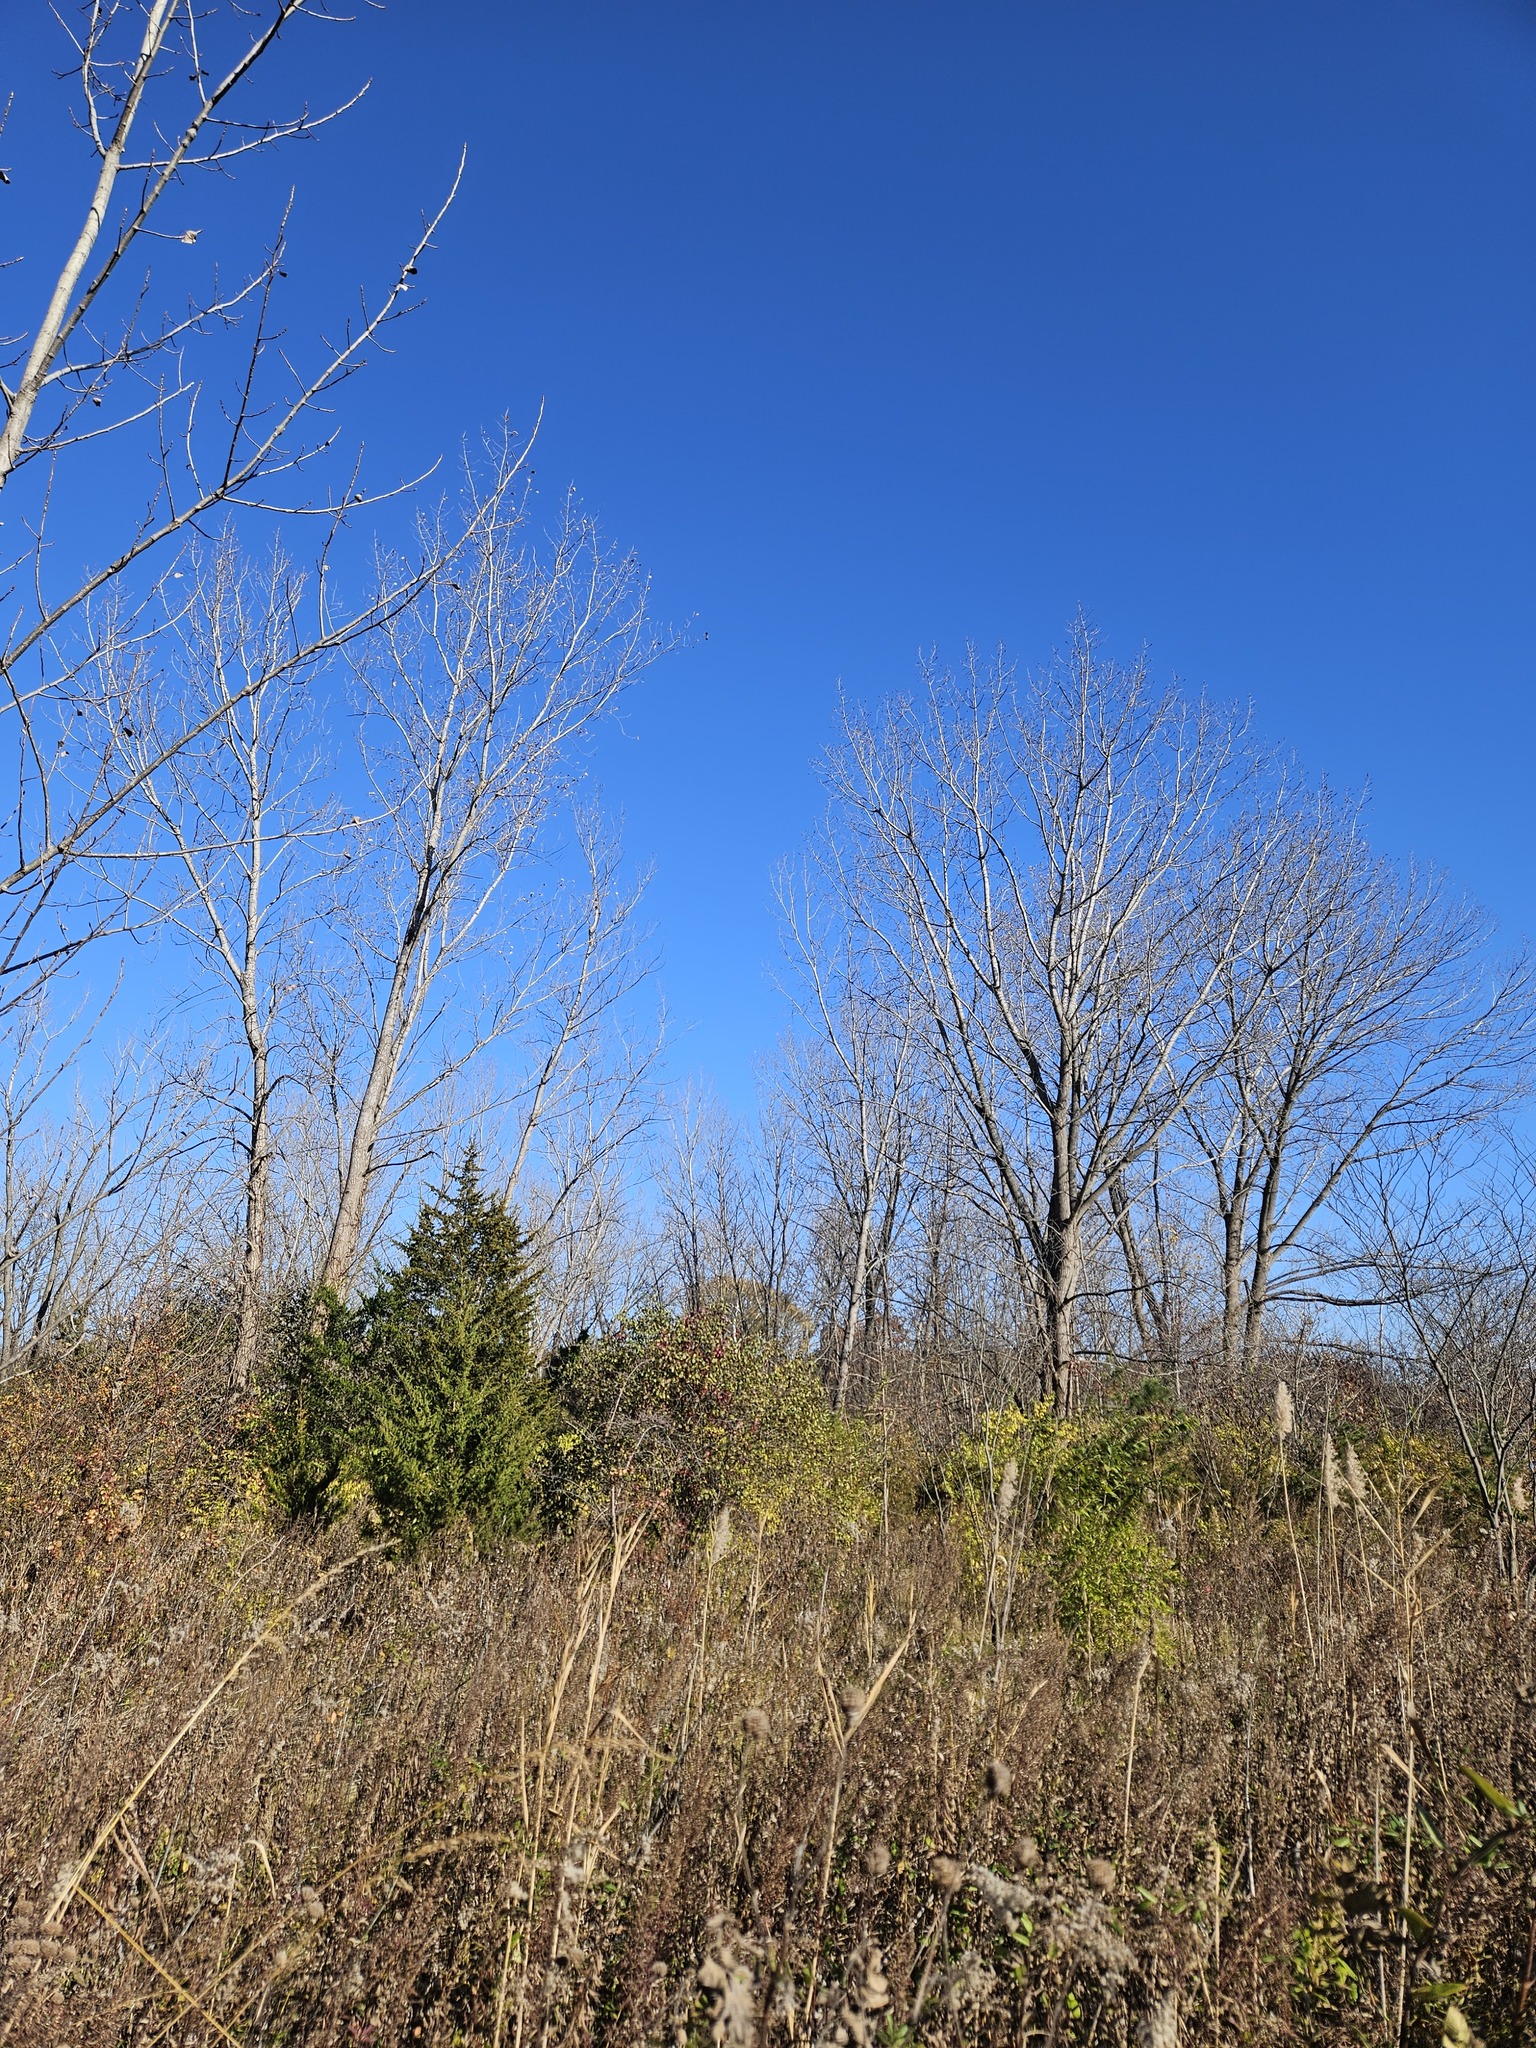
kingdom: Plantae
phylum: Tracheophyta
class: Magnoliopsida
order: Malpighiales
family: Salicaceae
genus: Populus
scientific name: Populus deltoides
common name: Eastern cottonwood
